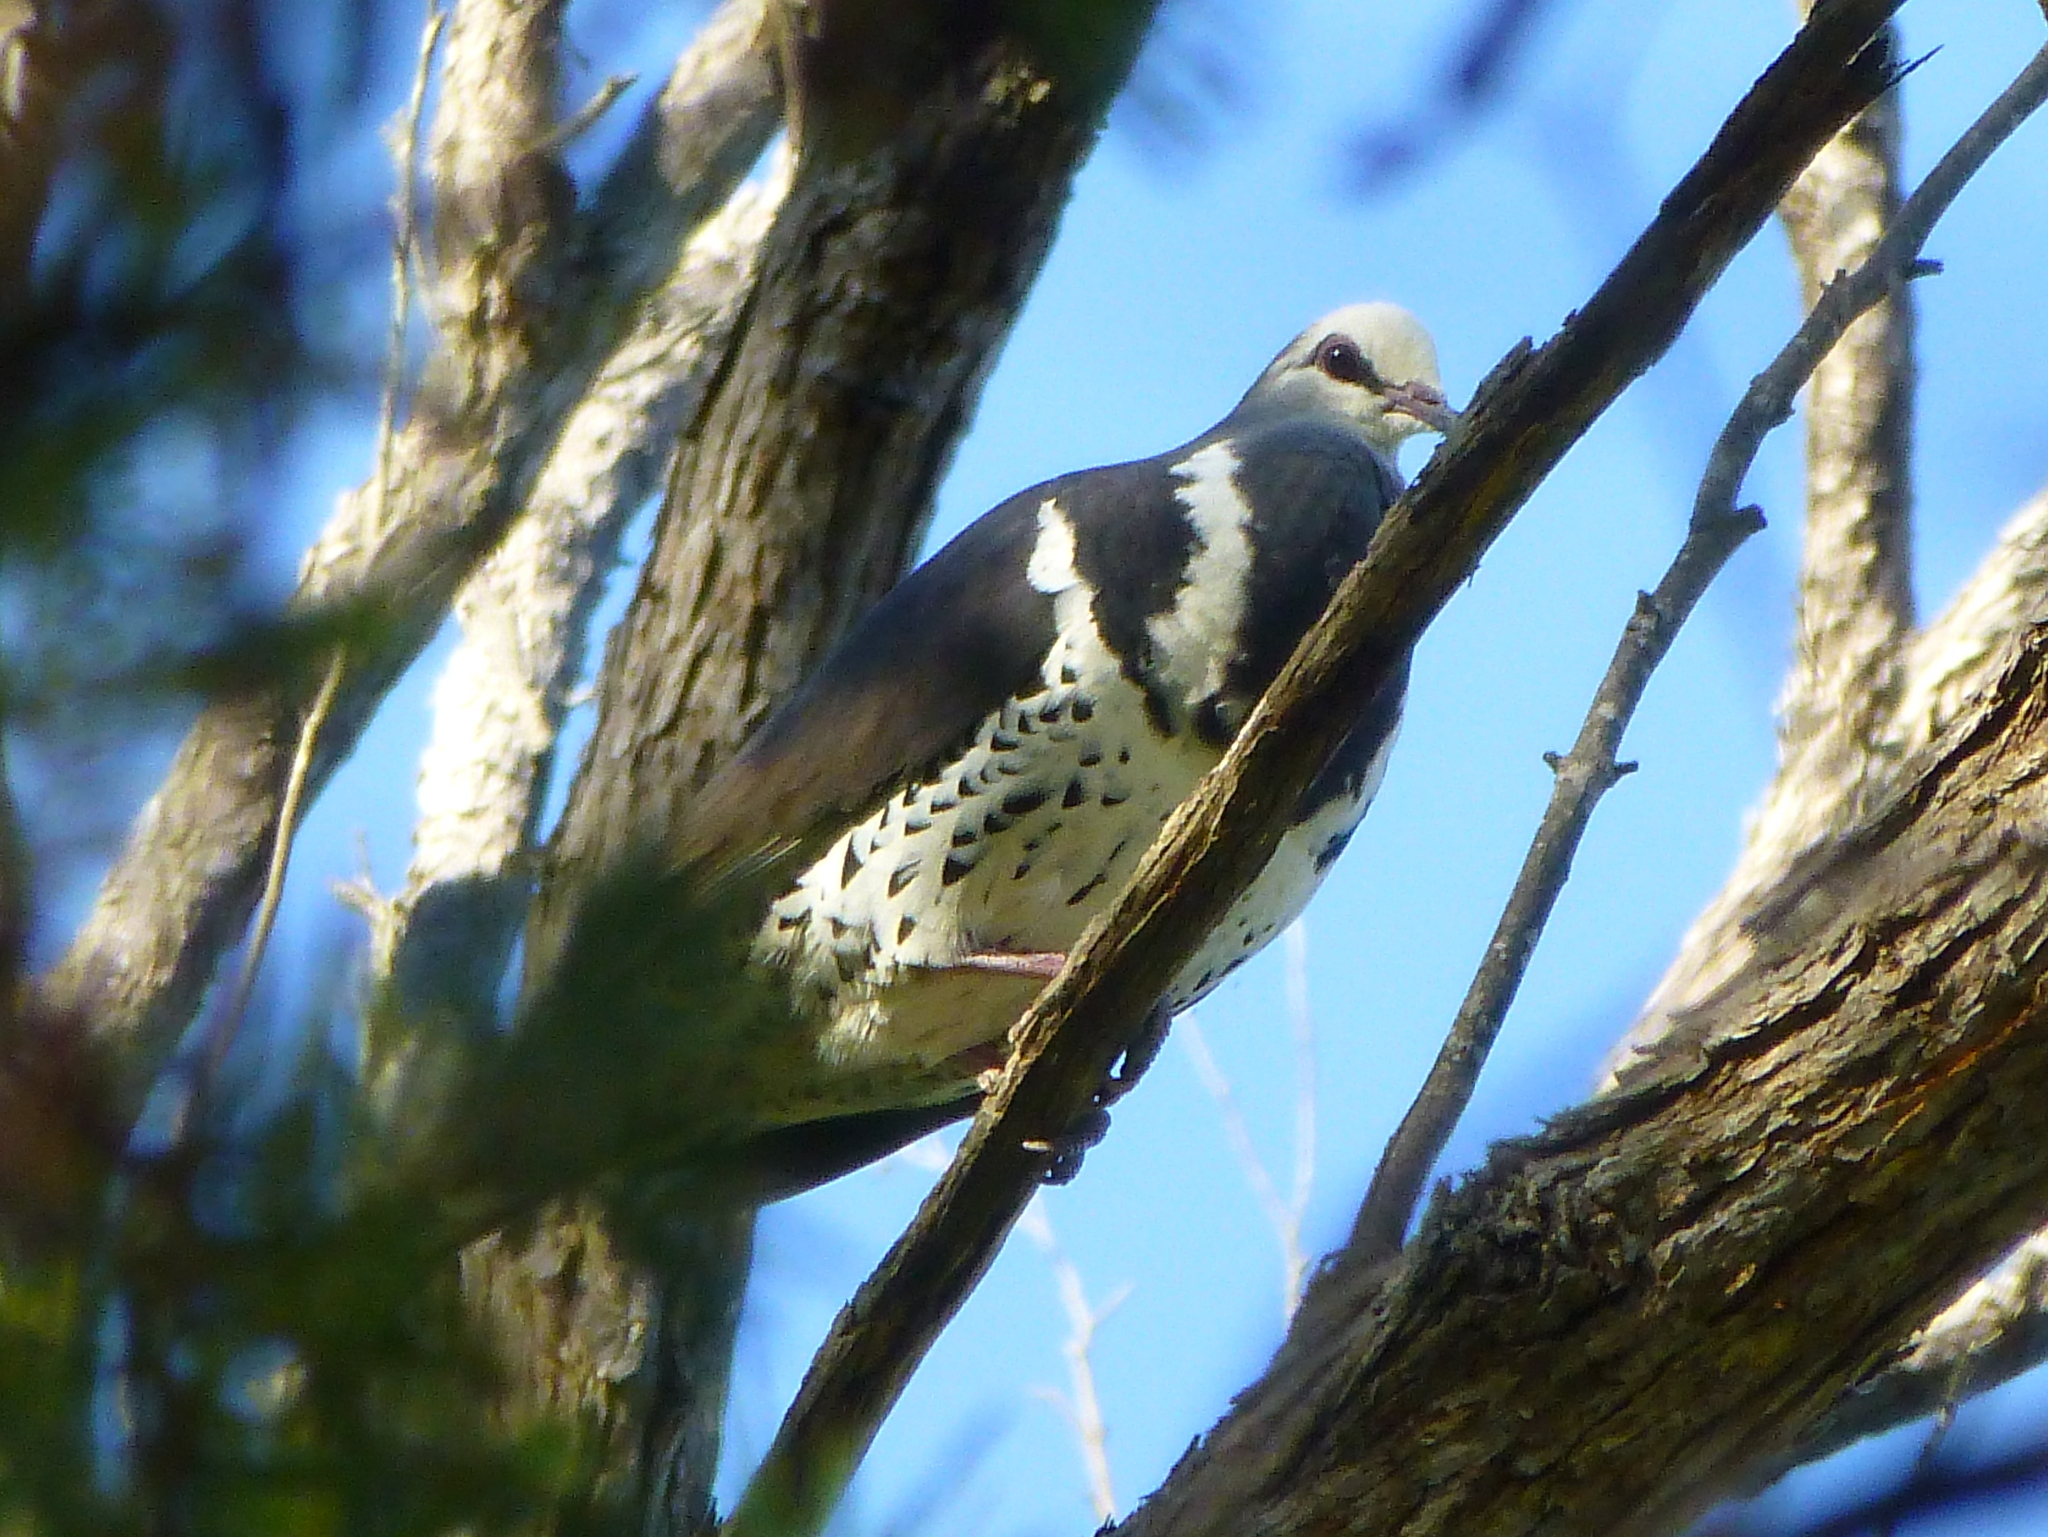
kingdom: Animalia
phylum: Chordata
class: Aves
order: Columbiformes
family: Columbidae
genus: Leucosarcia
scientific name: Leucosarcia melanoleuca
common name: Wonga pigeon
